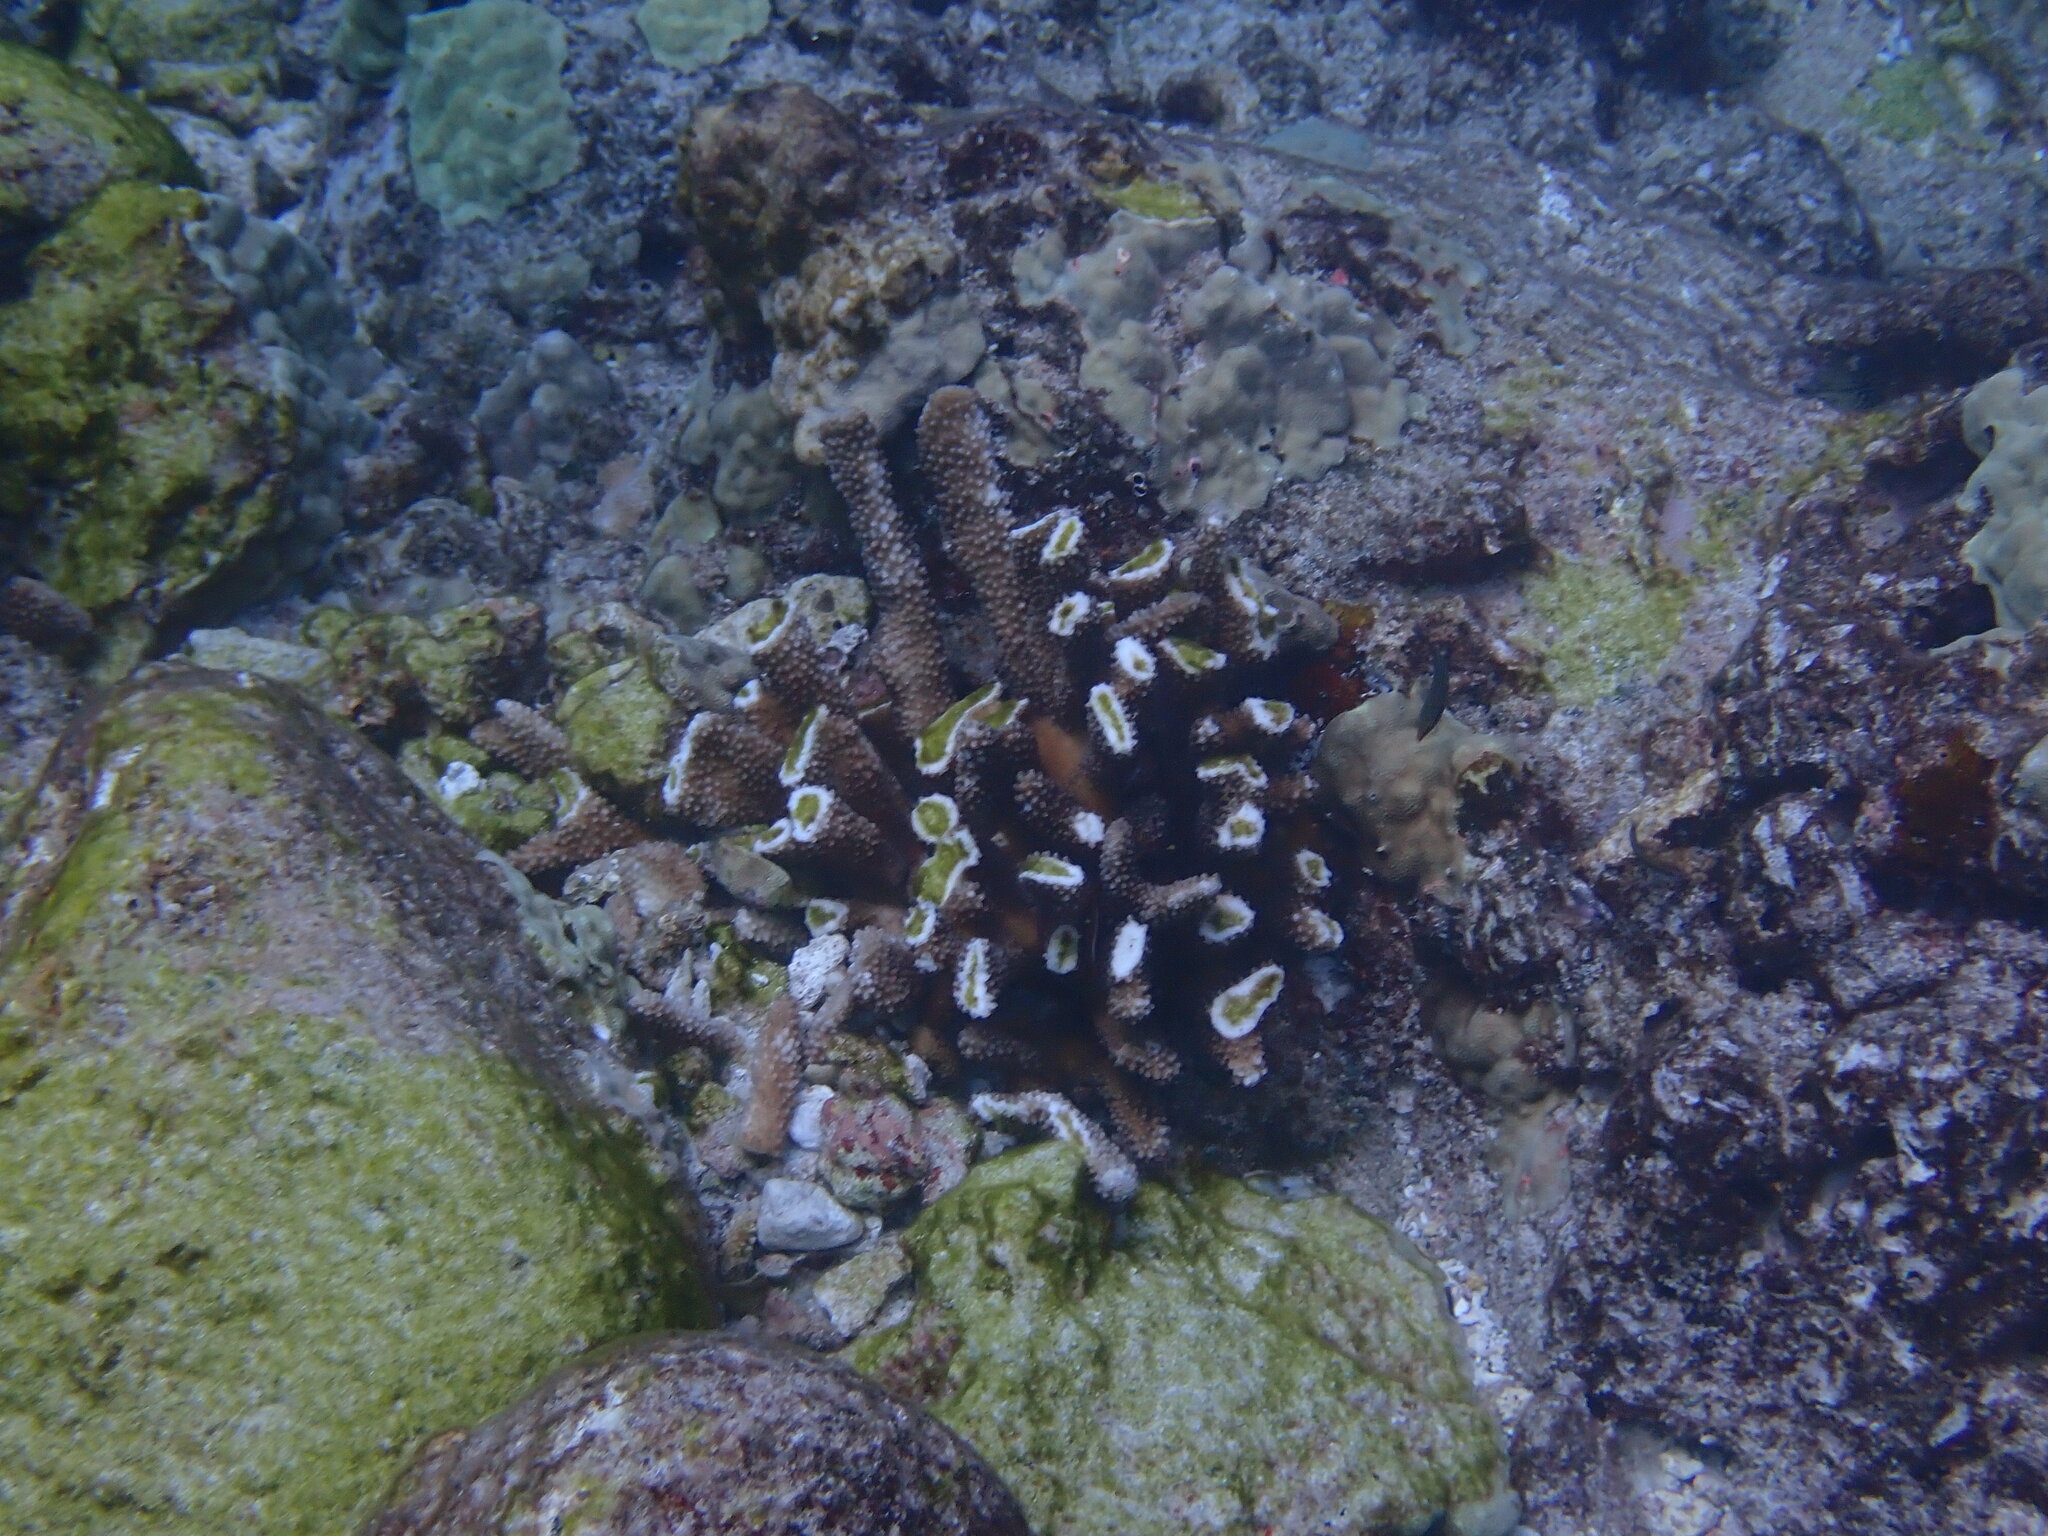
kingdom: Animalia
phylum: Cnidaria
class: Anthozoa
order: Scleractinia
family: Pocilloporidae
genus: Pocillopora
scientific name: Pocillopora grandis
